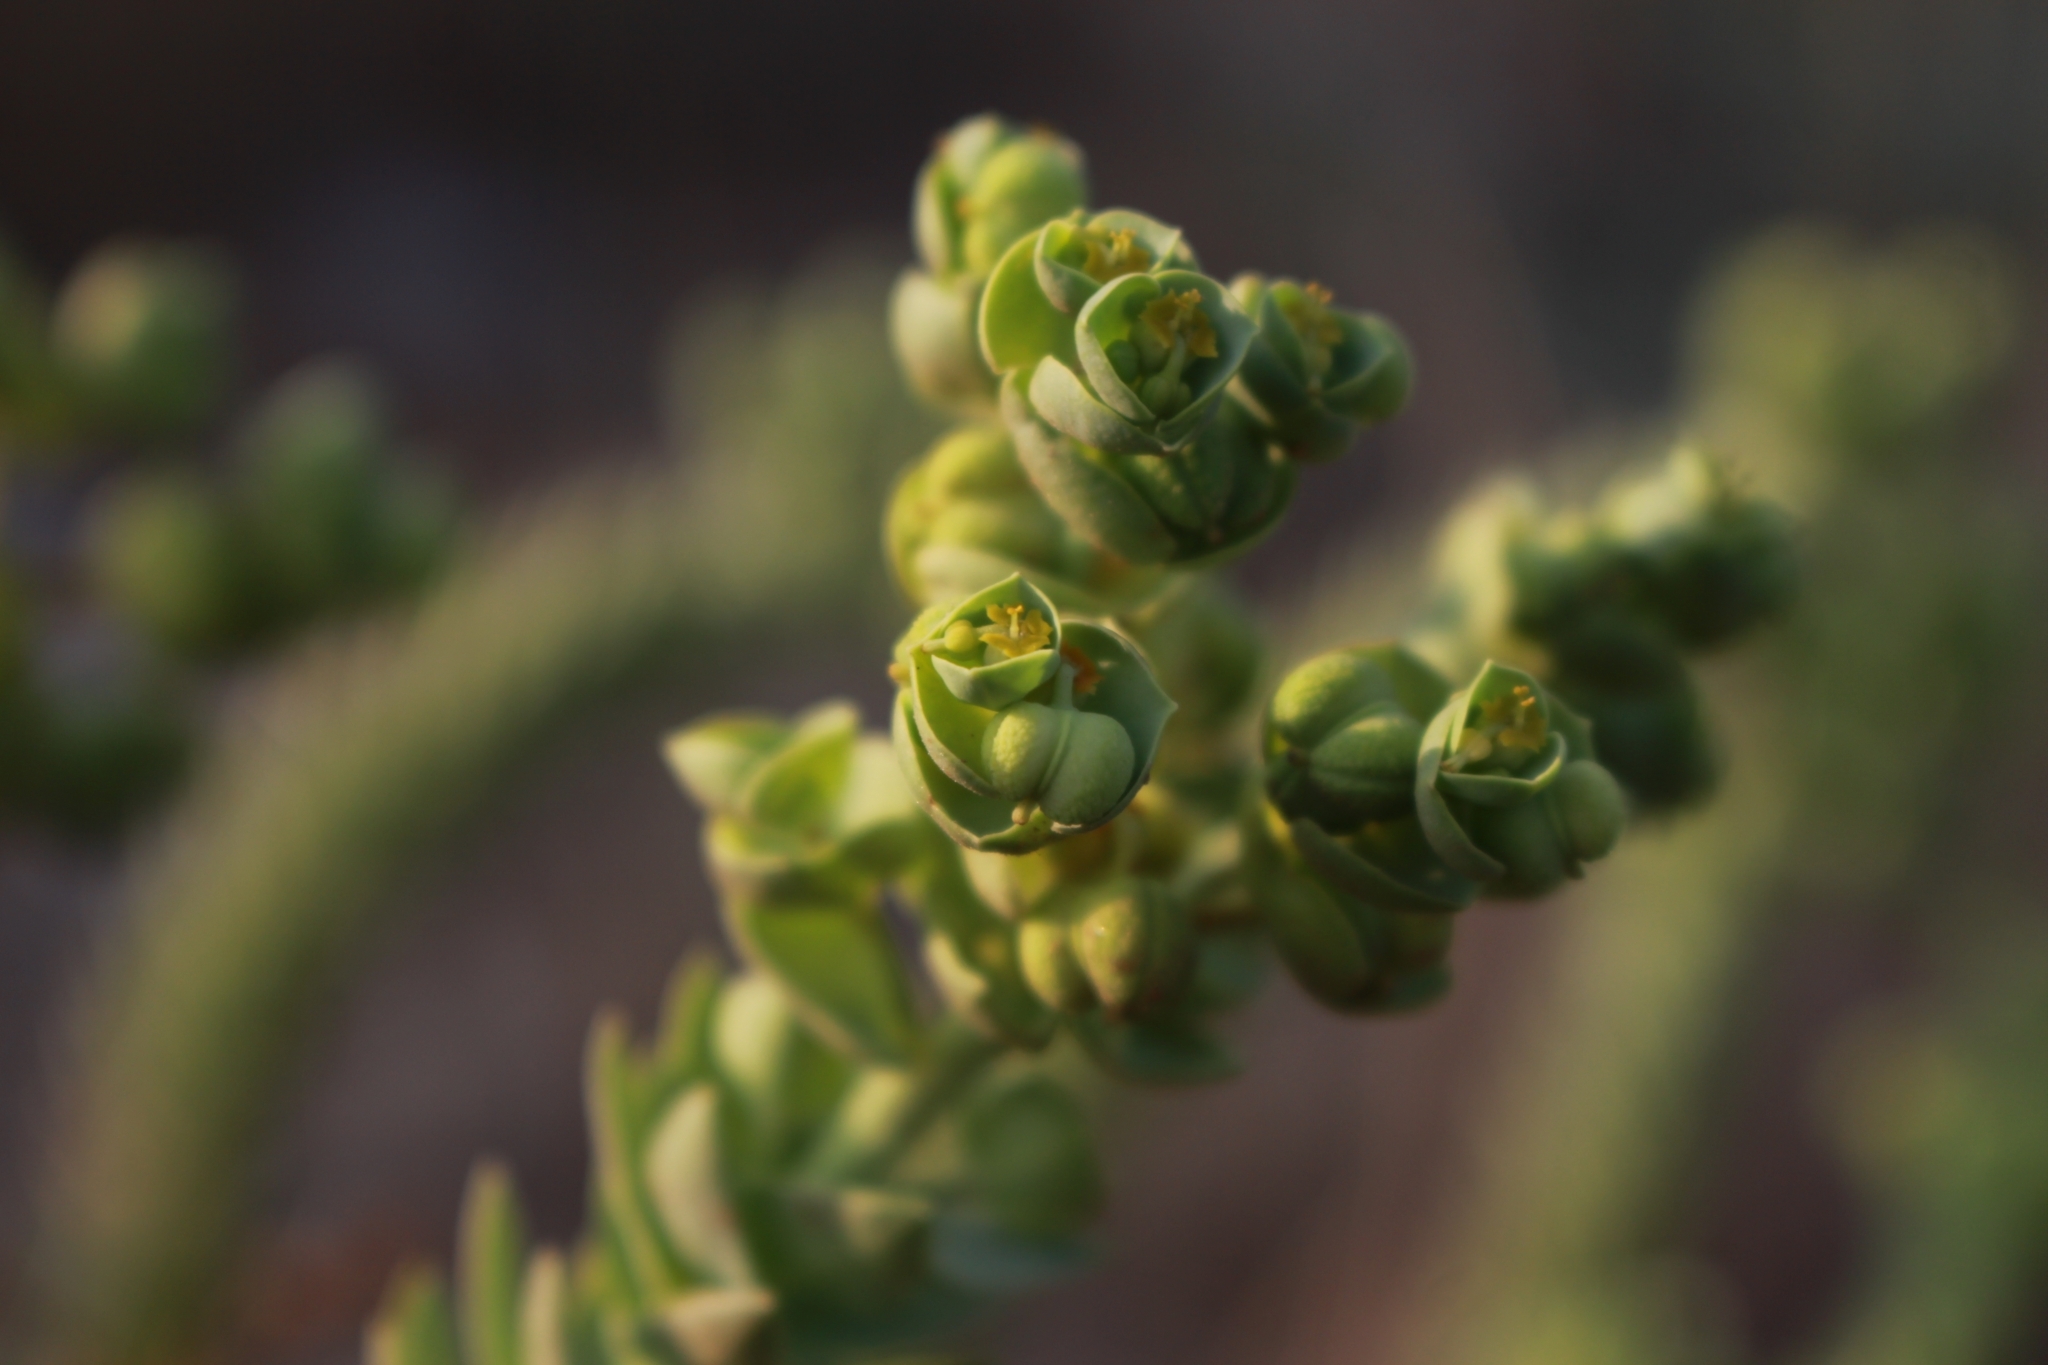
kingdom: Plantae
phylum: Tracheophyta
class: Magnoliopsida
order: Malpighiales
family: Euphorbiaceae
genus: Euphorbia
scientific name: Euphorbia paralias
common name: Sea spurge
